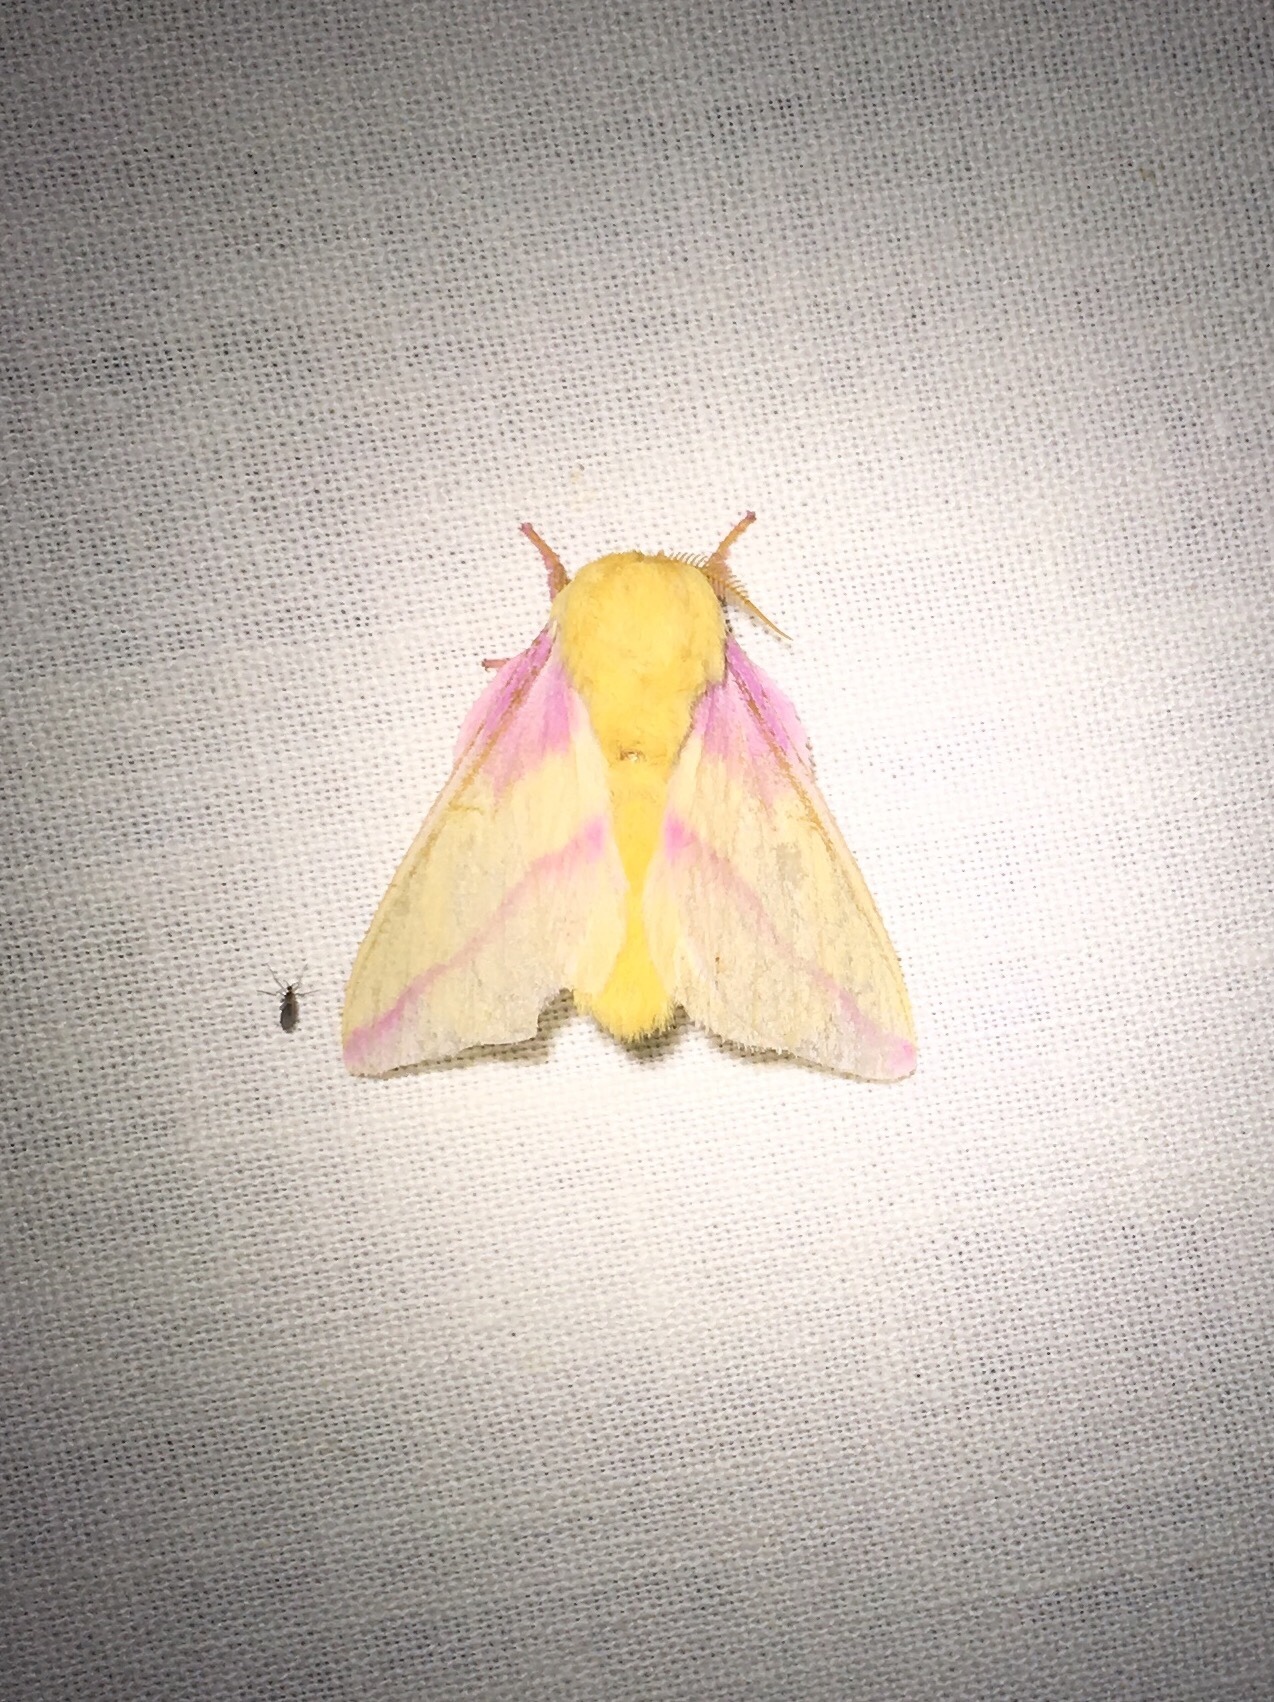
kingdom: Animalia
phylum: Arthropoda
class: Insecta
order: Lepidoptera
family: Saturniidae
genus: Dryocampa
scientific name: Dryocampa rubicunda
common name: Rosy maple moth
